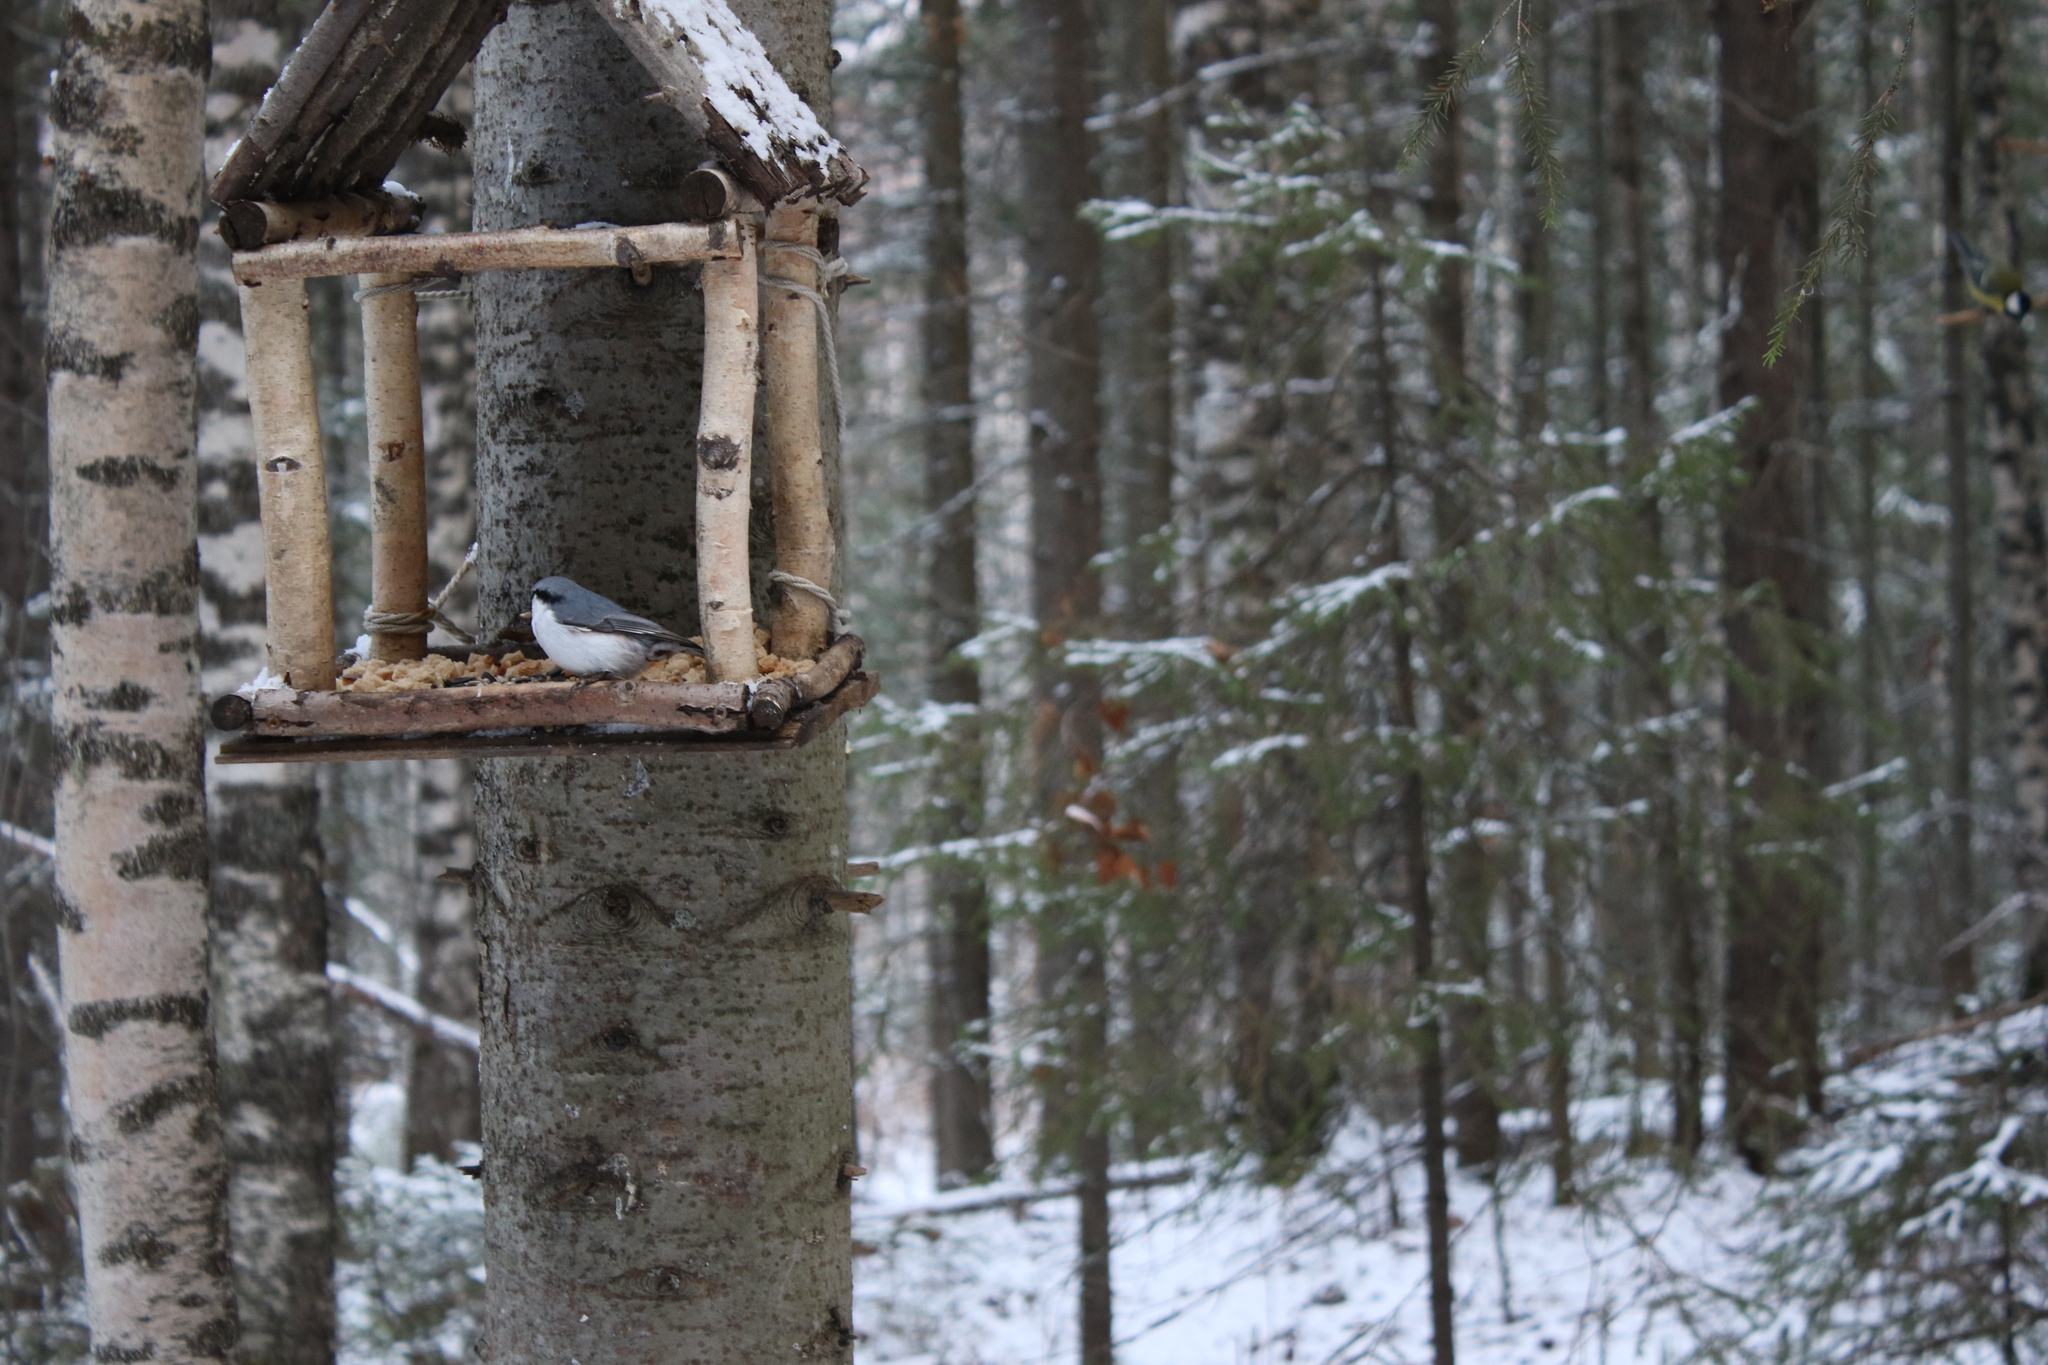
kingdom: Animalia
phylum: Chordata
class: Aves
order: Passeriformes
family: Sittidae
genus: Sitta
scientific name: Sitta europaea
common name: Eurasian nuthatch
